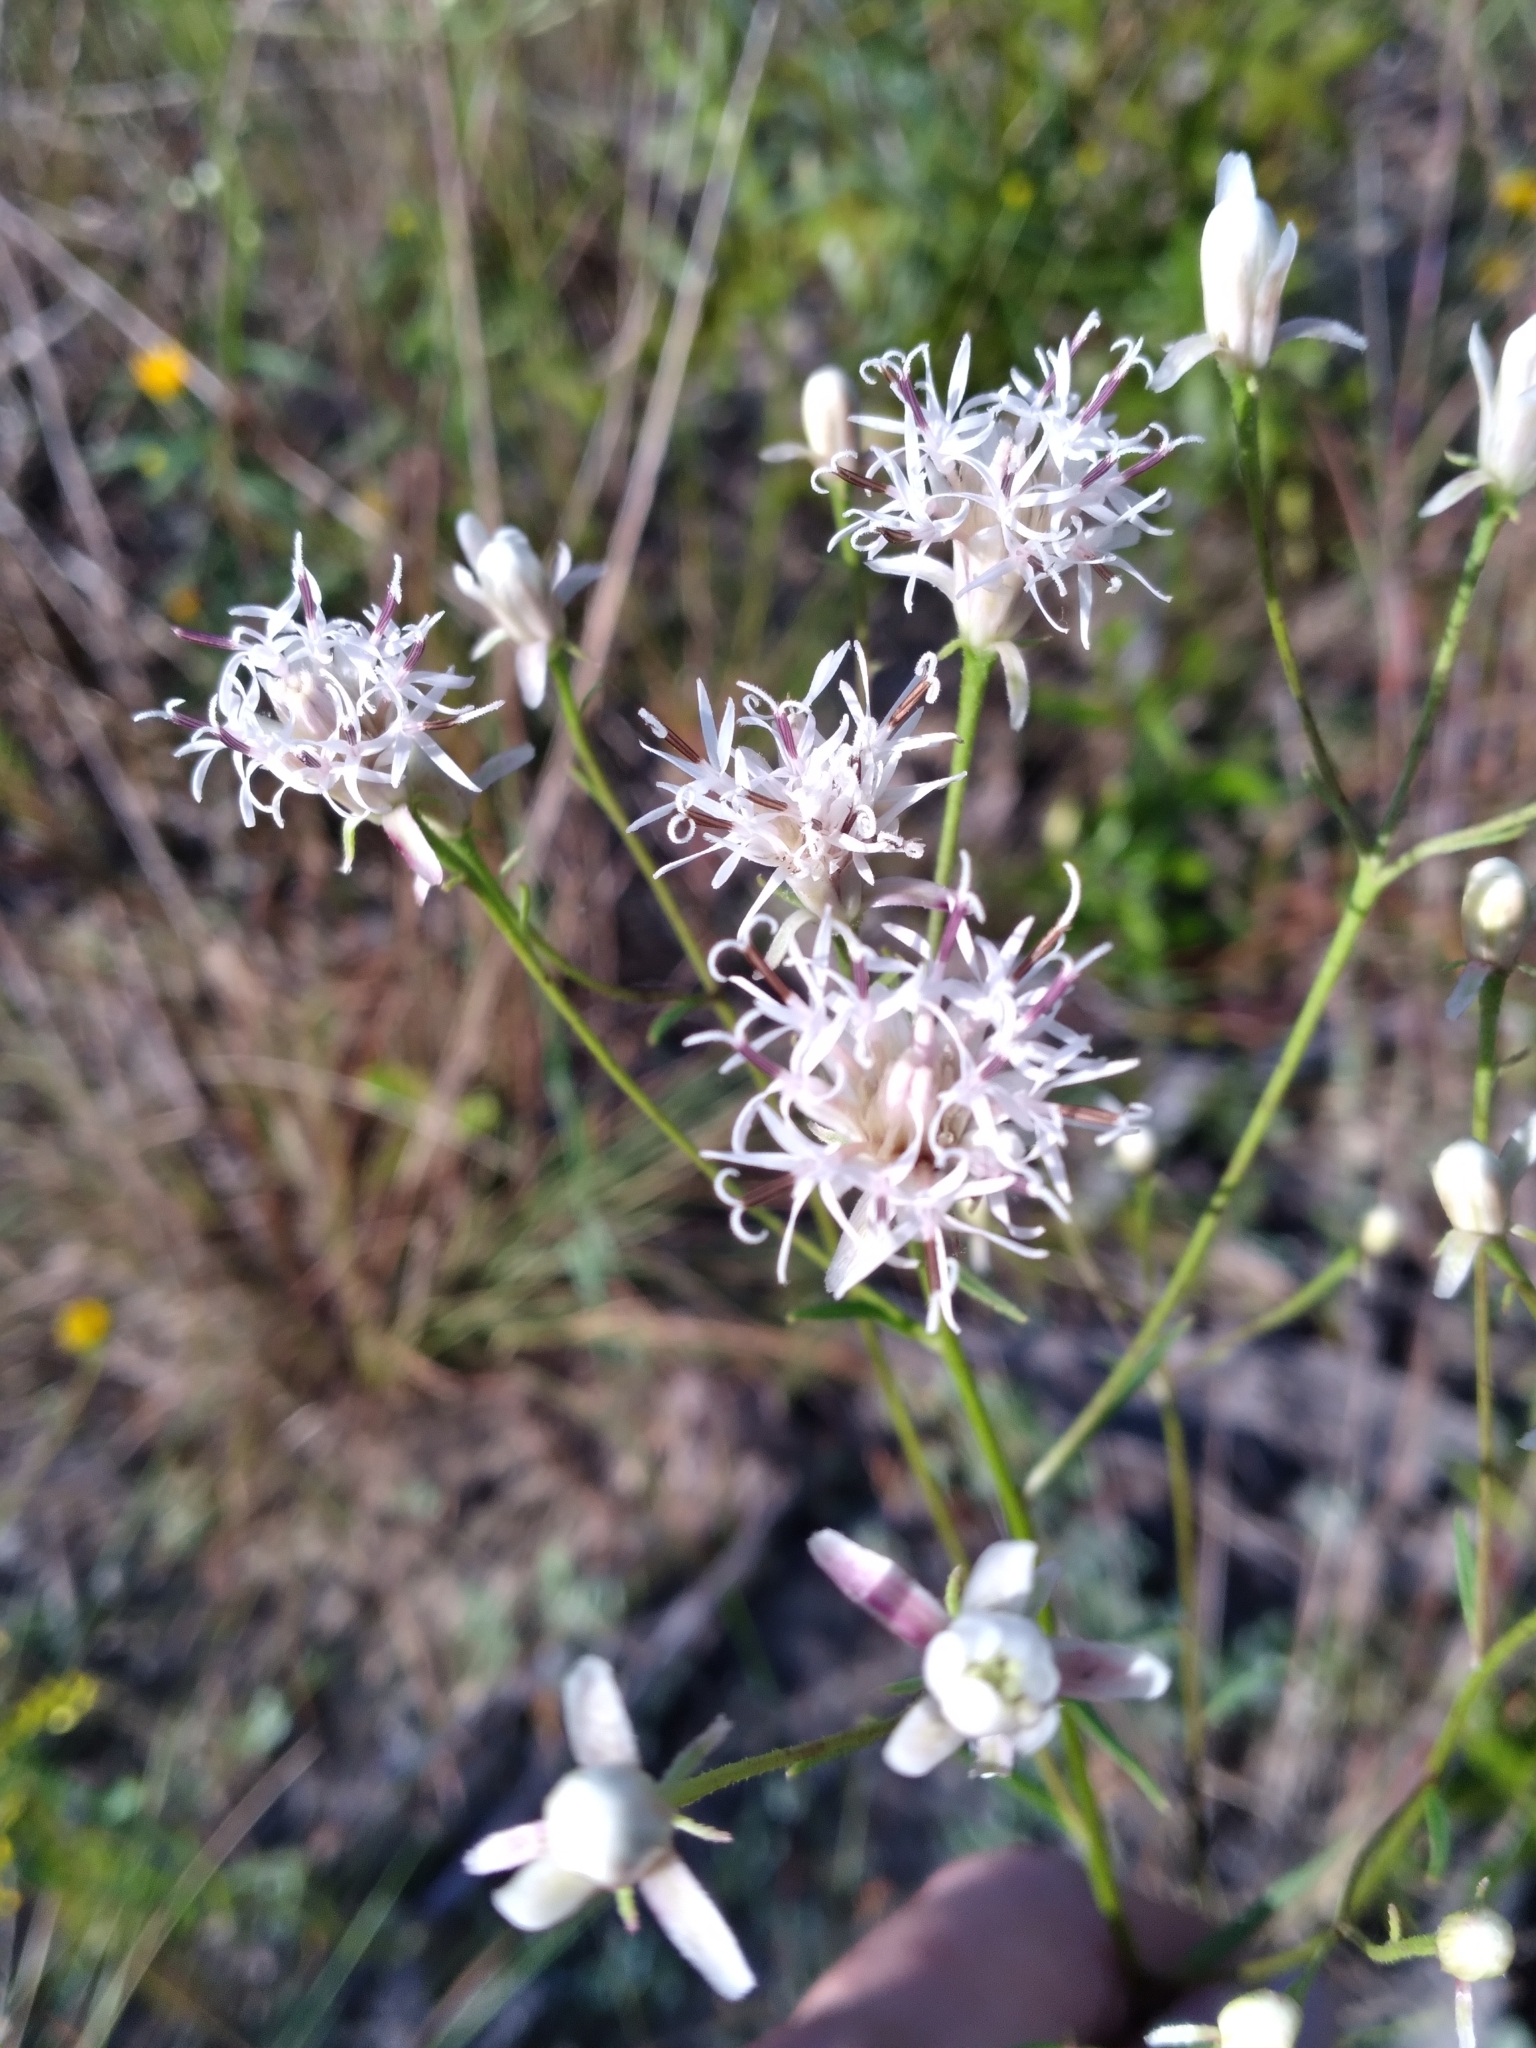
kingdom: Plantae
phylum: Tracheophyta
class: Magnoliopsida
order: Asterales
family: Asteraceae
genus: Palafoxia
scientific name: Palafoxia integrifolia
